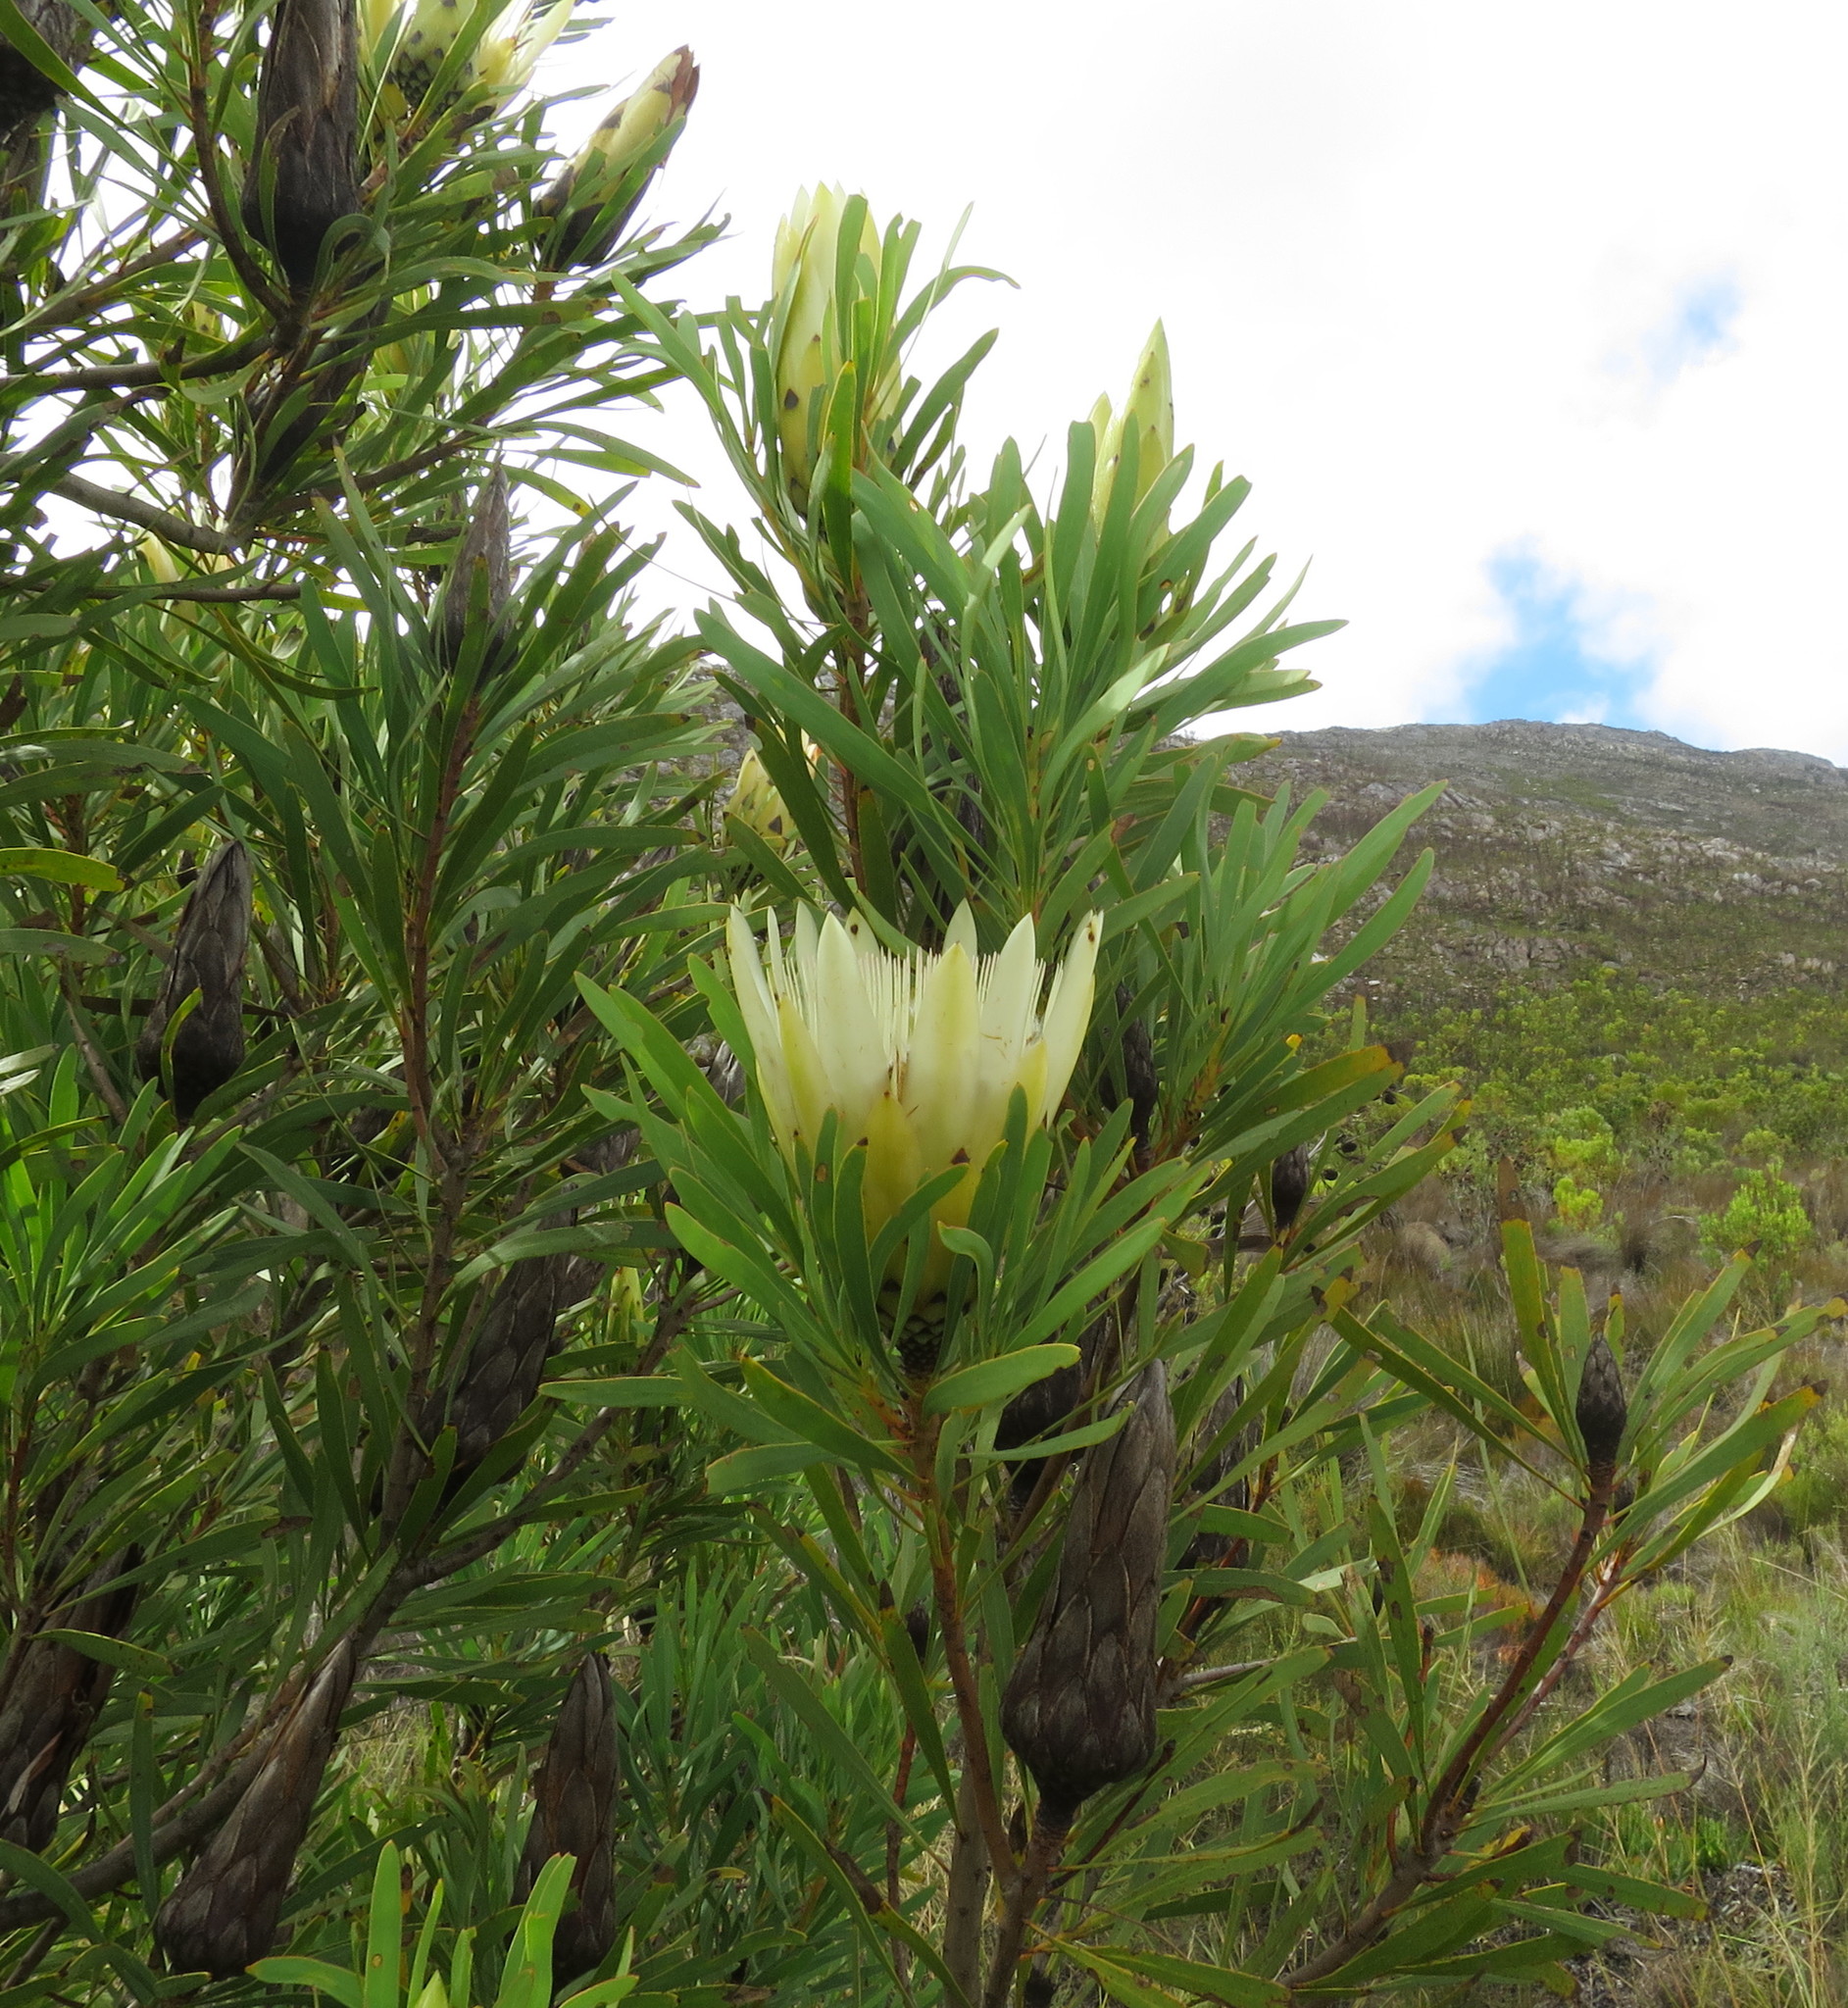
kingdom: Plantae
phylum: Tracheophyta
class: Magnoliopsida
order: Proteales
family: Proteaceae
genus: Protea
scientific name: Protea repens
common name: Sugarbush
